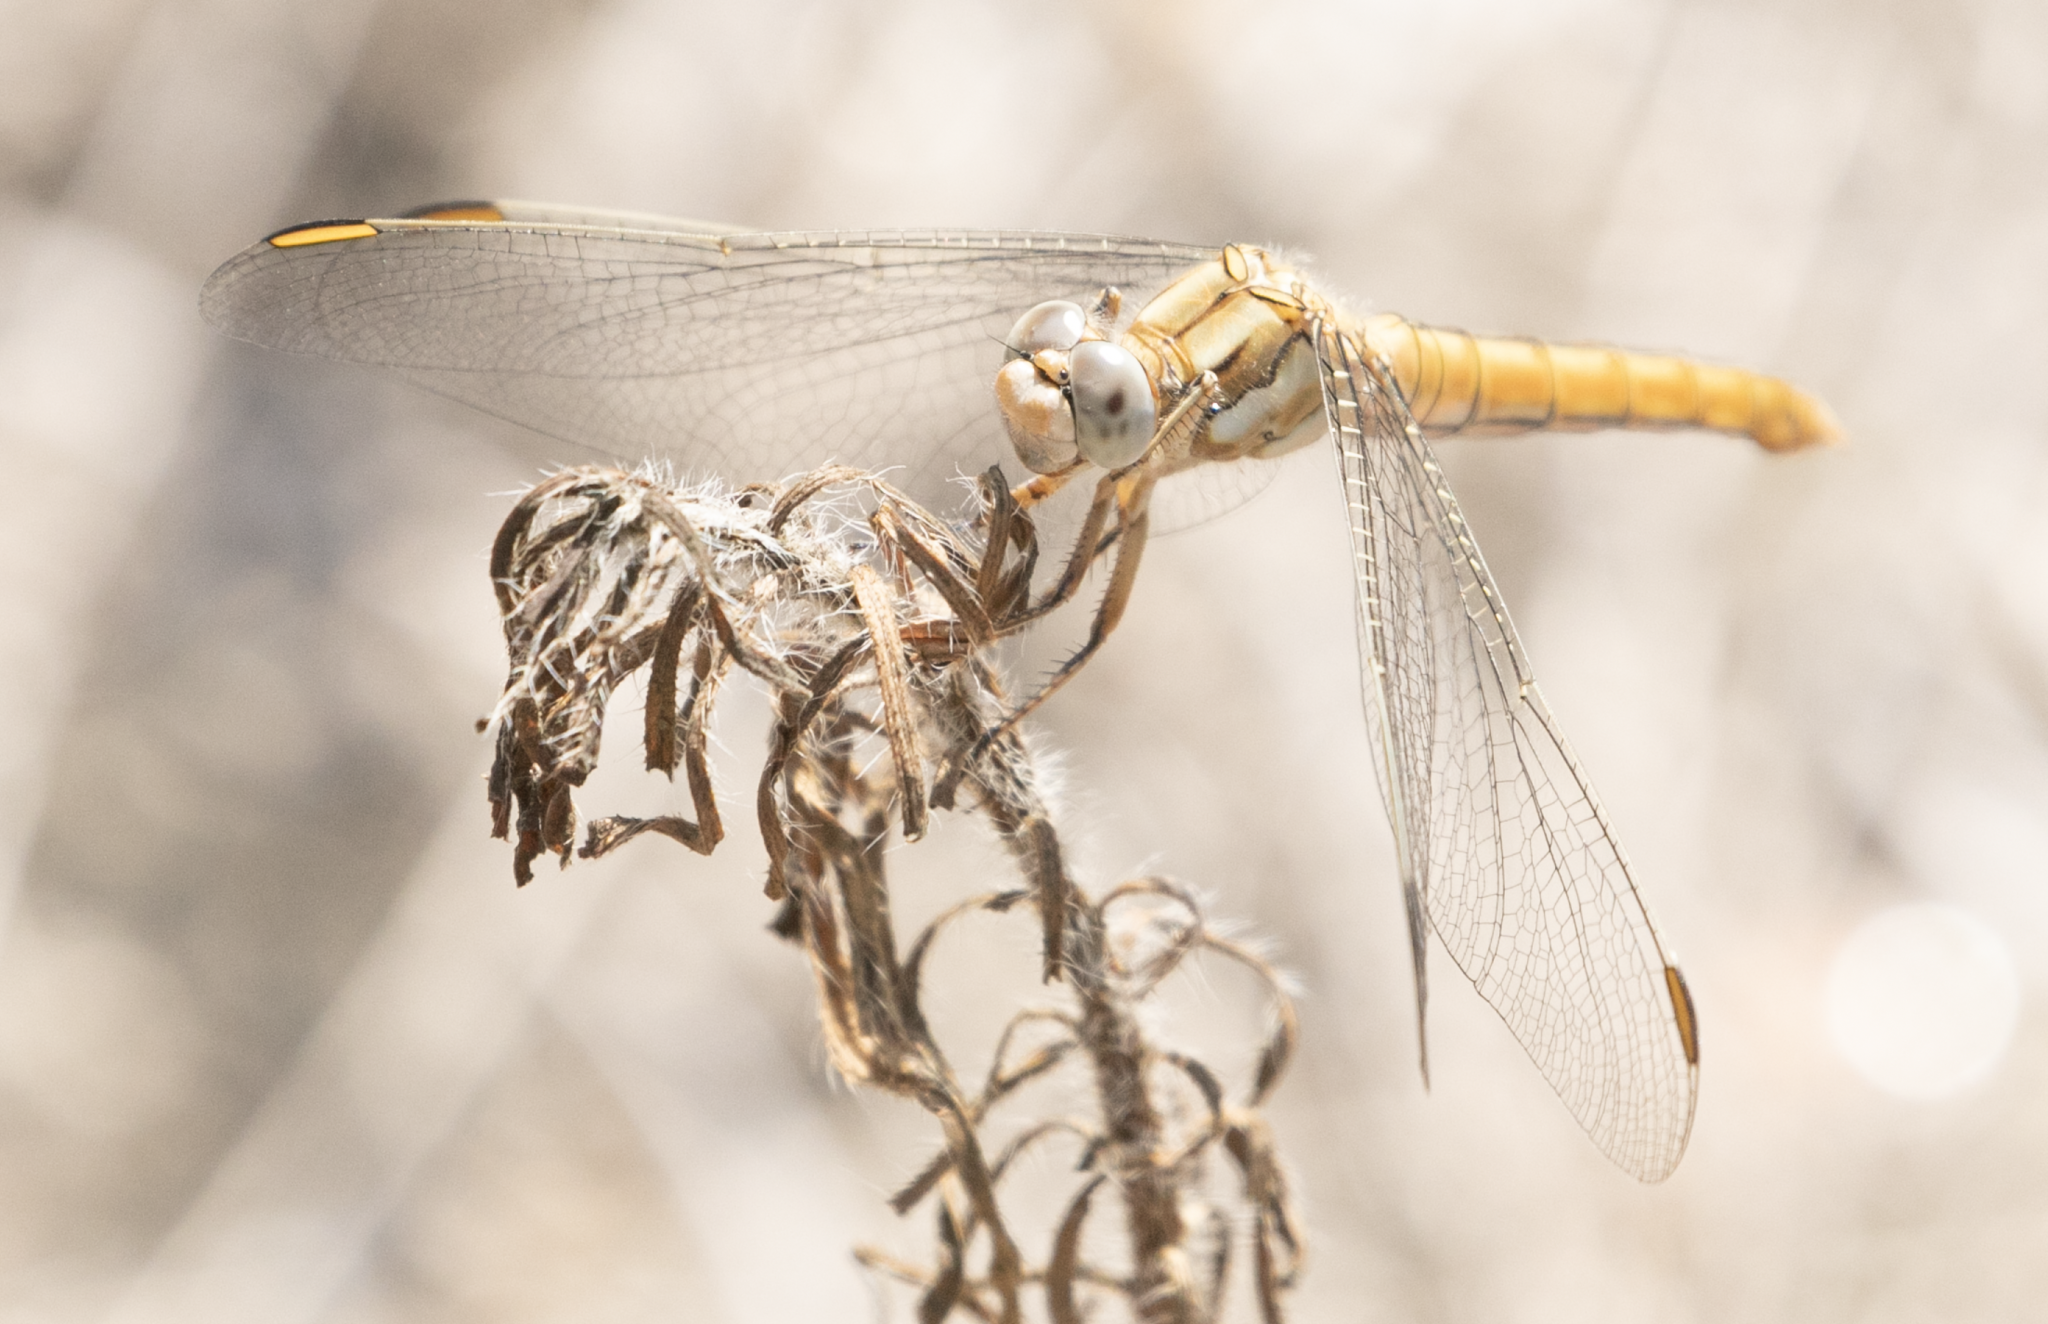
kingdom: Animalia
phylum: Arthropoda
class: Insecta
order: Odonata
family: Libellulidae
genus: Orthetrum
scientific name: Orthetrum brunneum
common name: Southern skimmer
